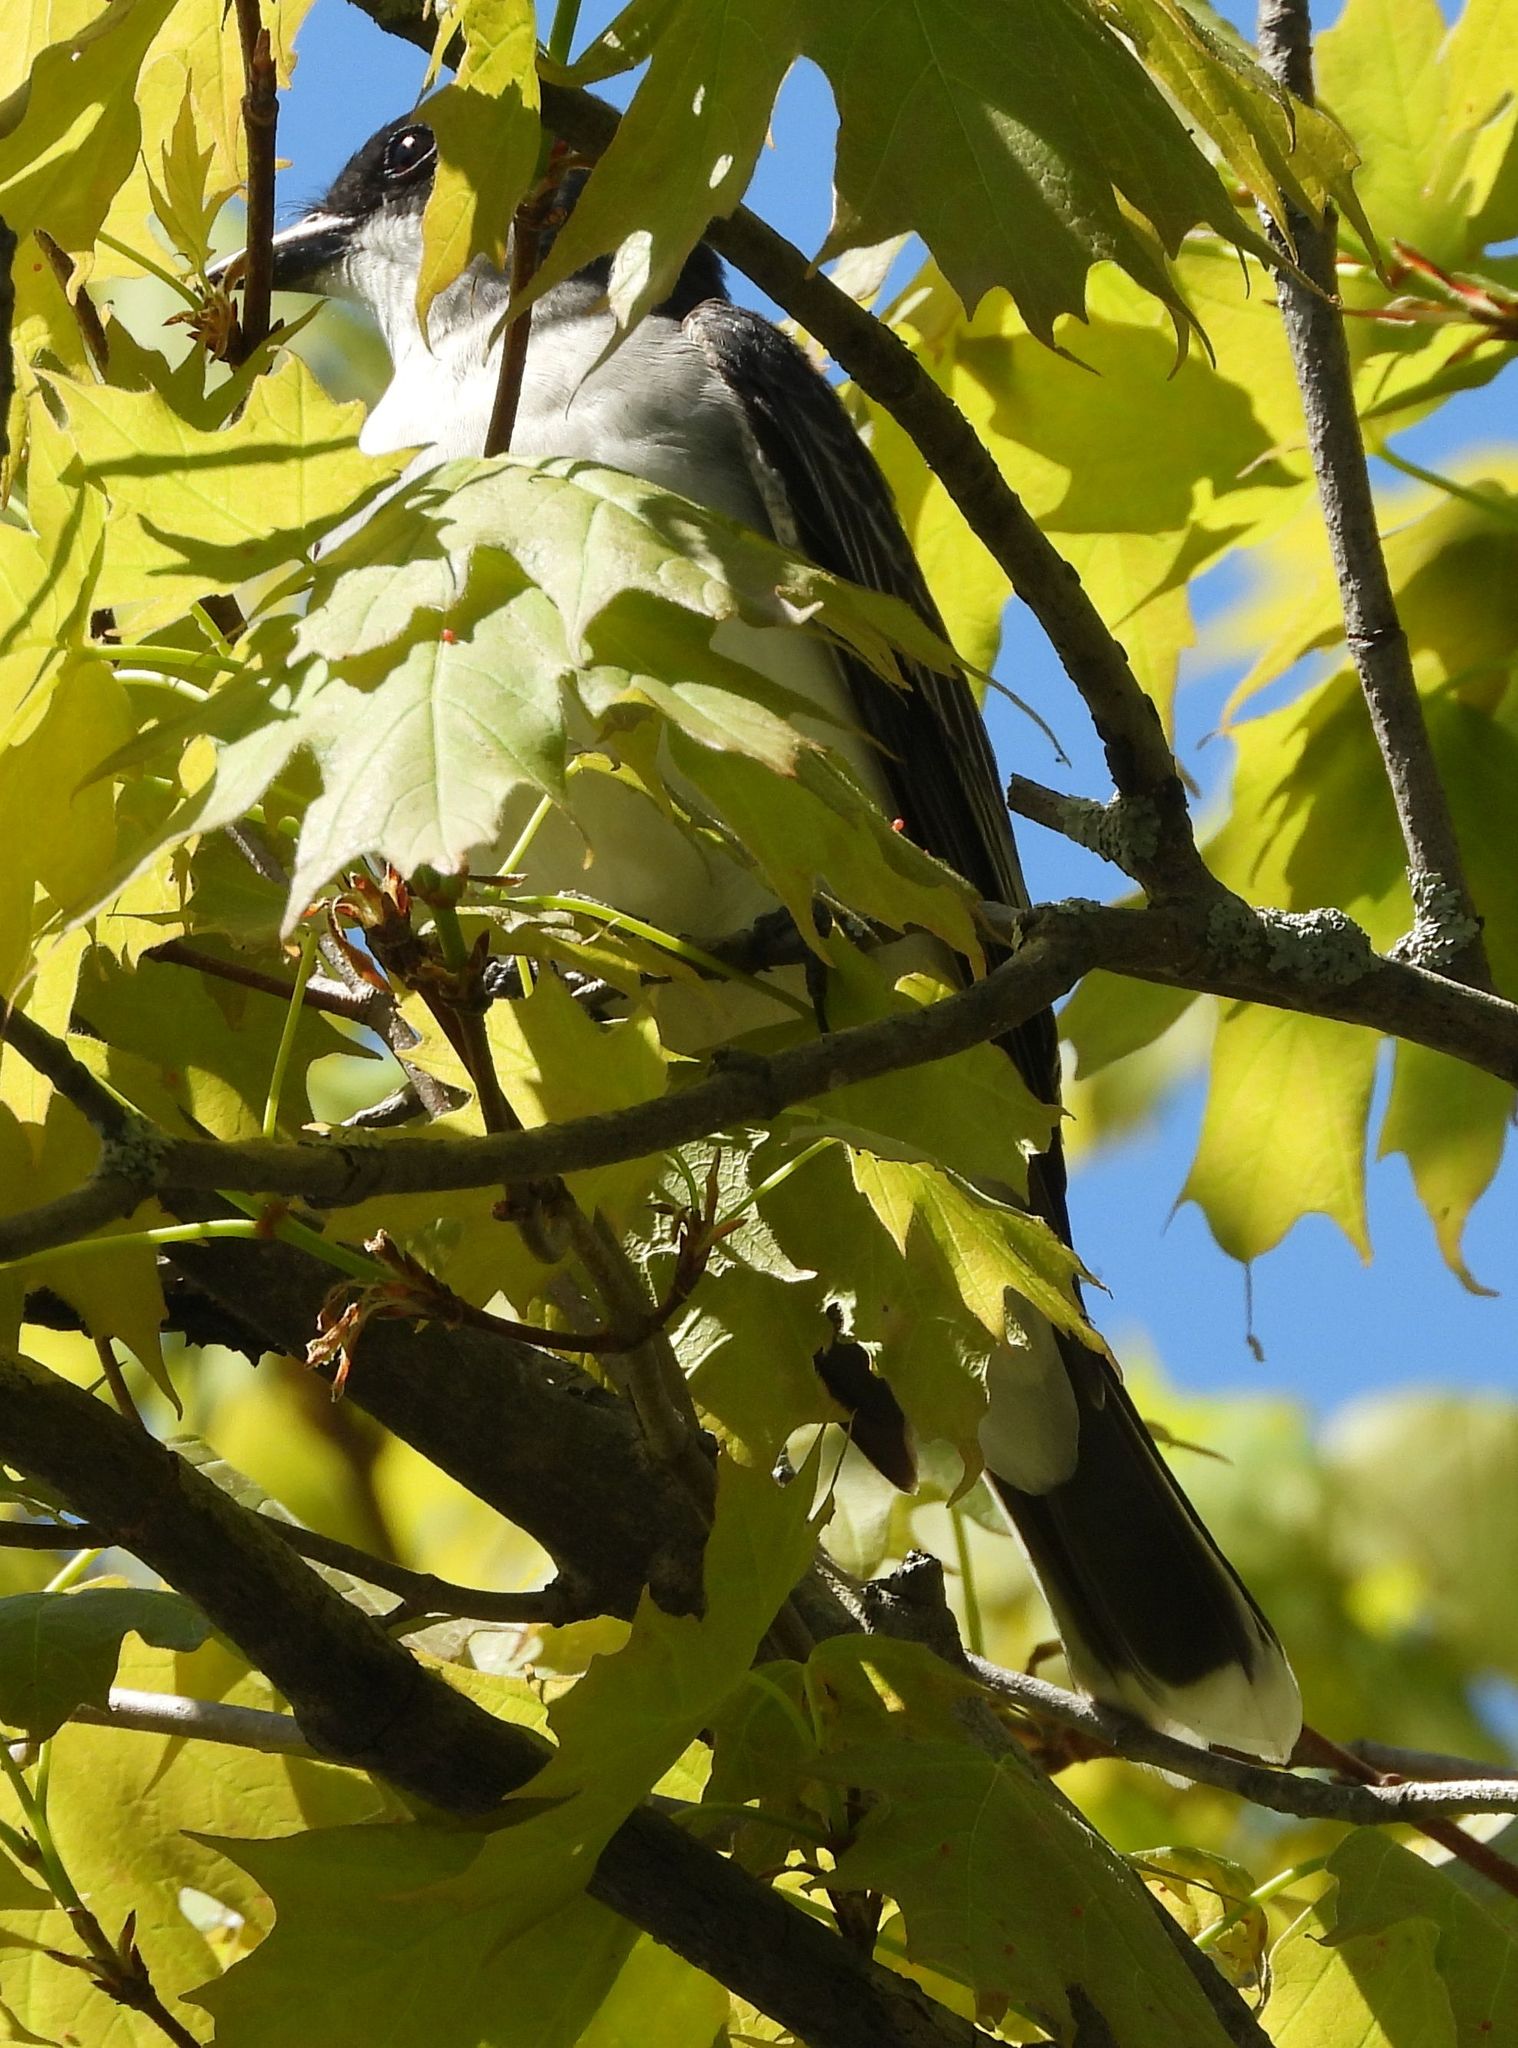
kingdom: Animalia
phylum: Chordata
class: Aves
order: Passeriformes
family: Tyrannidae
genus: Tyrannus
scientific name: Tyrannus tyrannus
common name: Eastern kingbird
